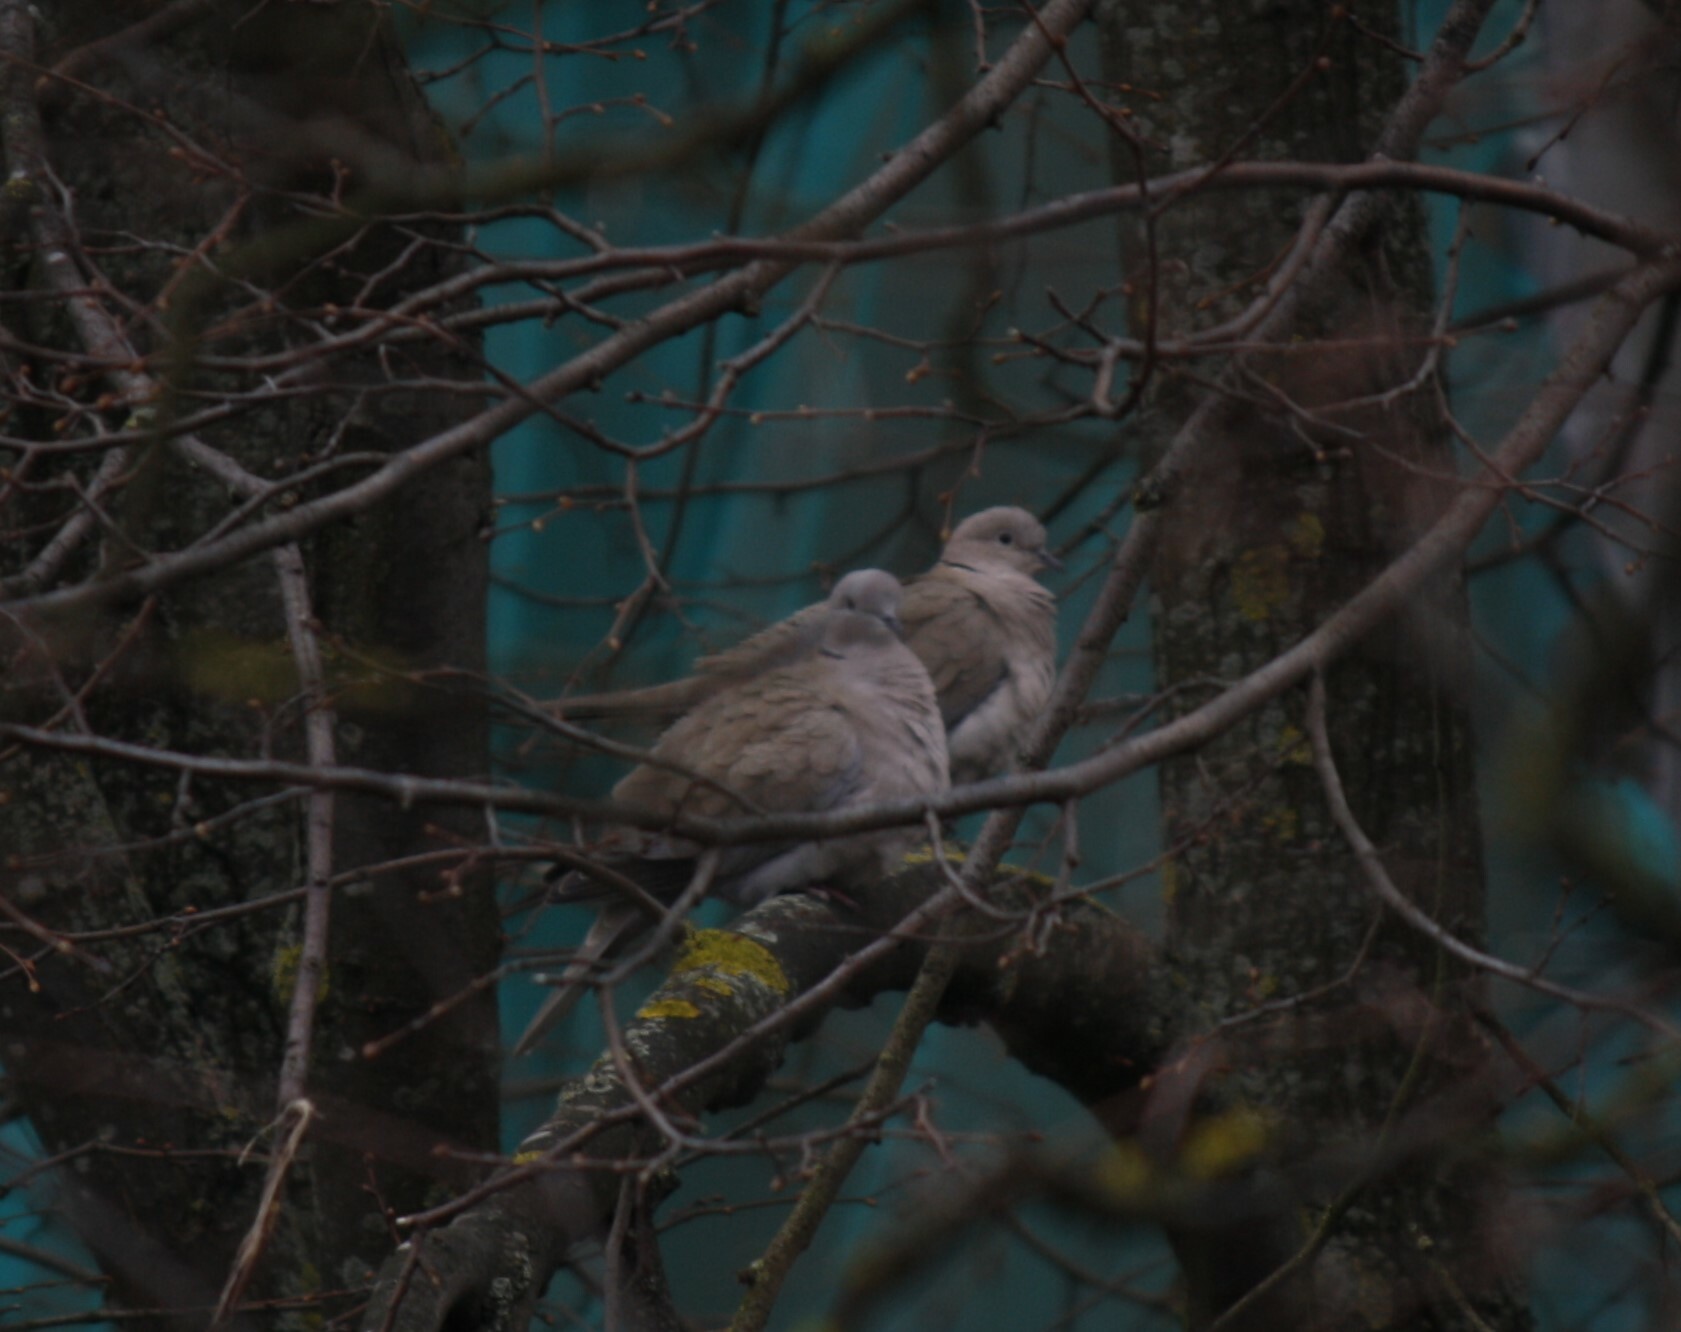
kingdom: Animalia
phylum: Chordata
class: Aves
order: Columbiformes
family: Columbidae
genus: Streptopelia
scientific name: Streptopelia decaocto
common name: Eurasian collared dove
